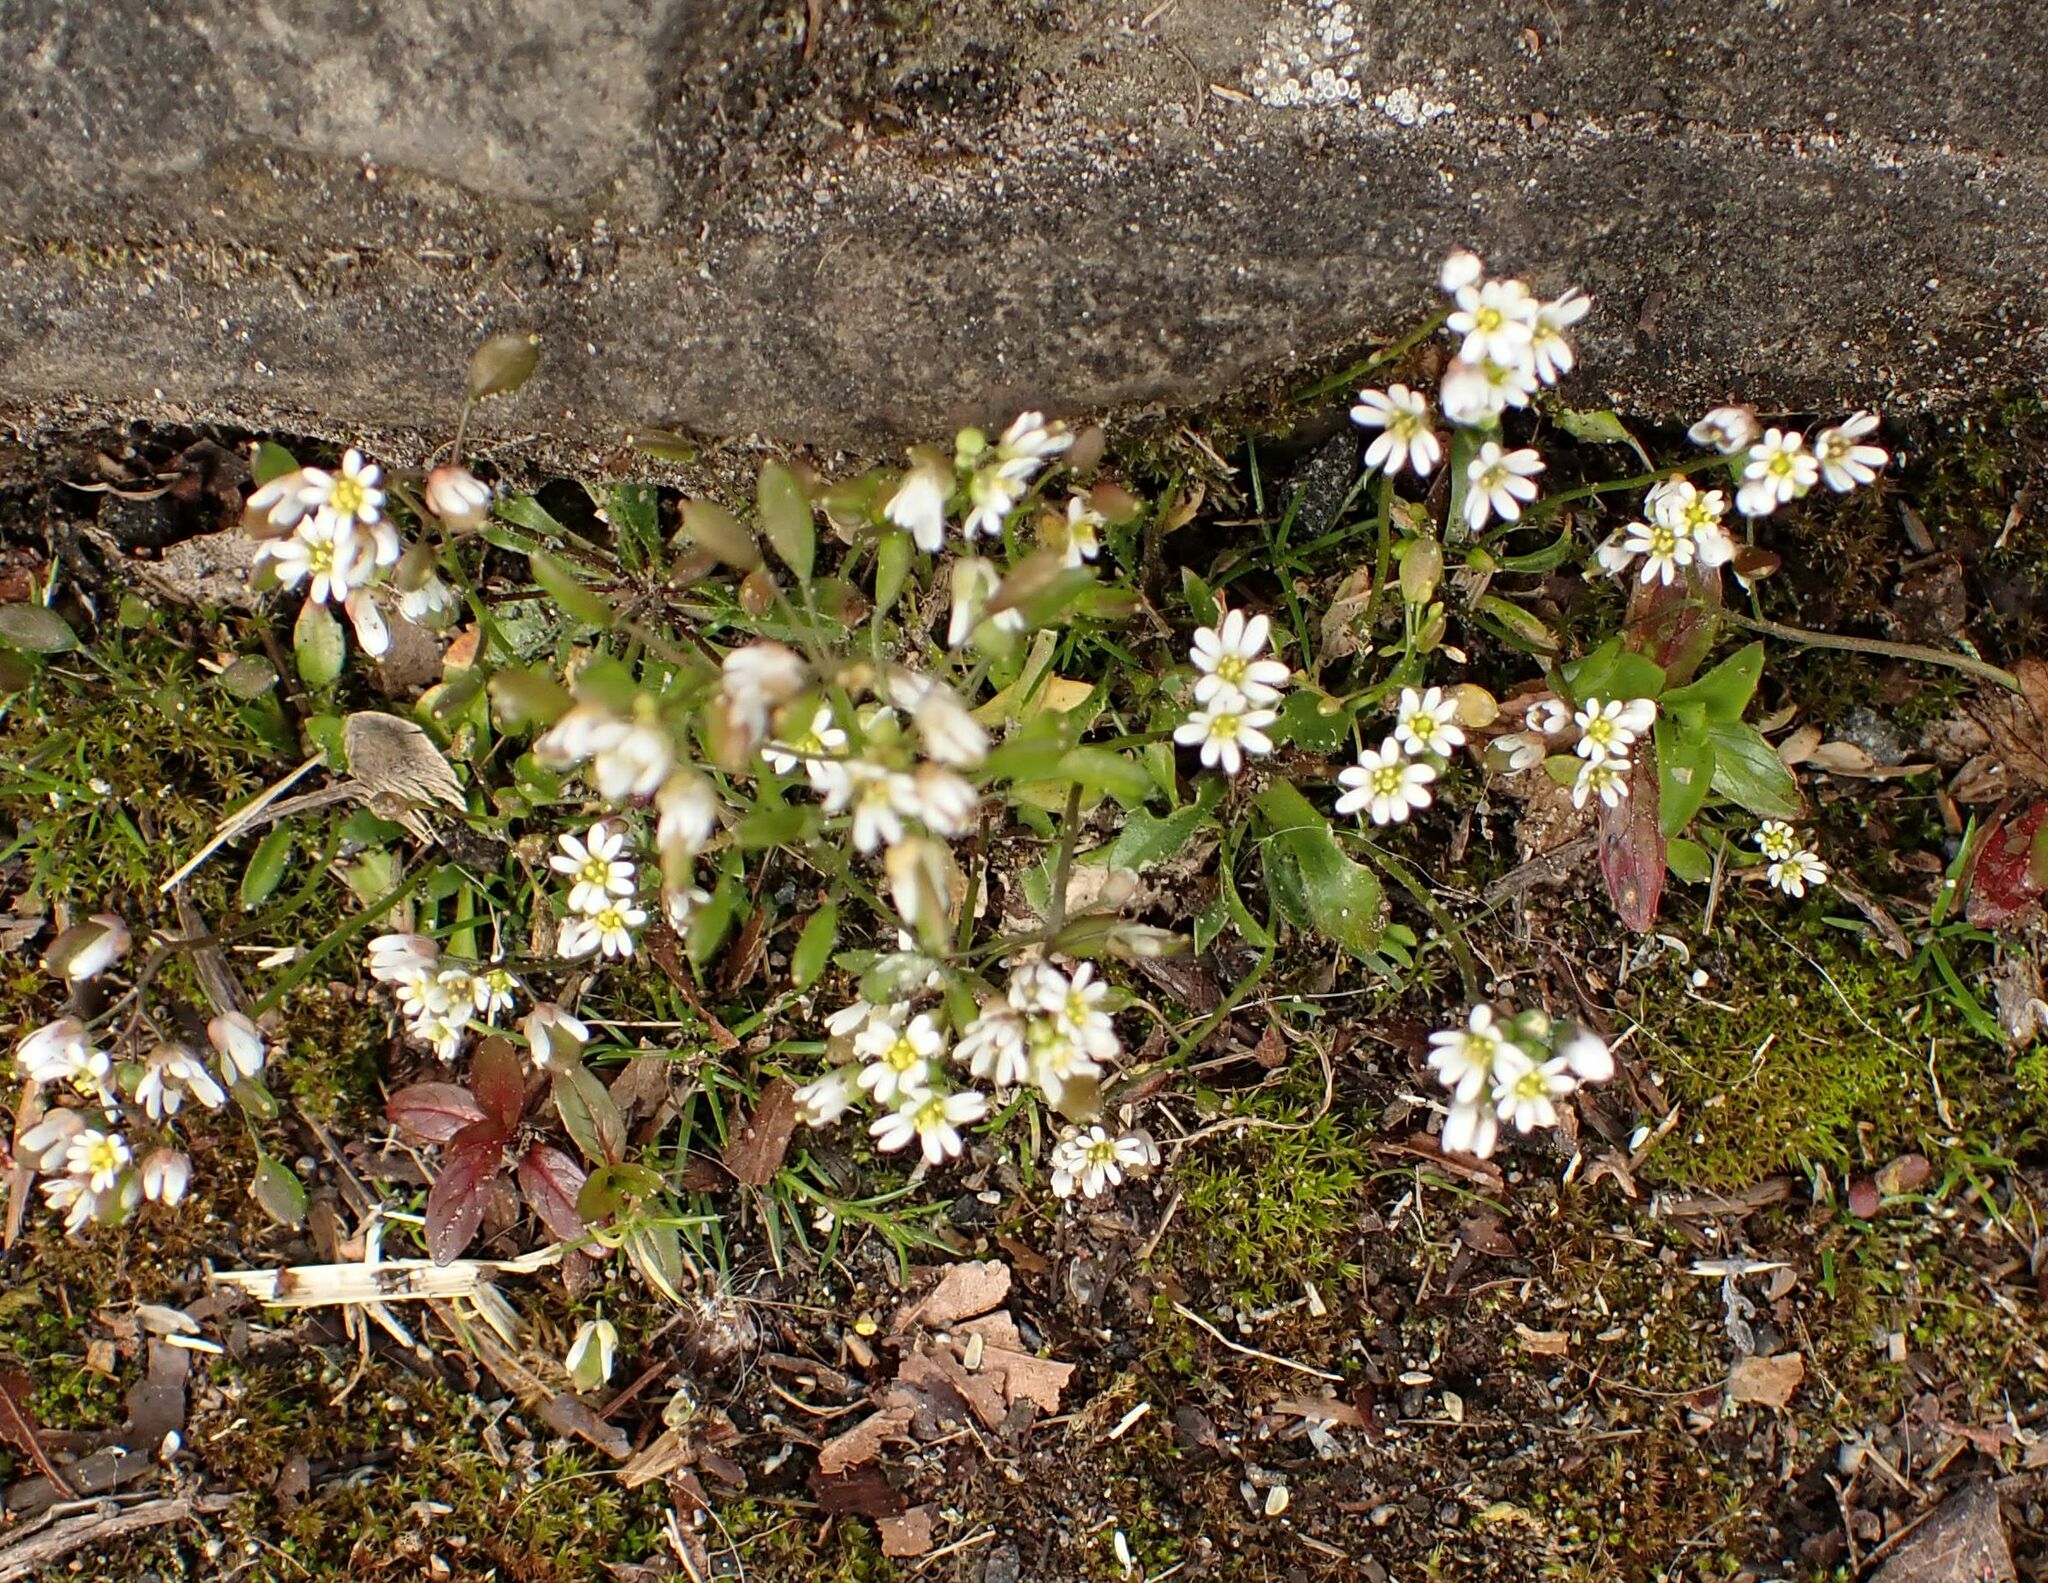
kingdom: Plantae
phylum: Tracheophyta
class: Magnoliopsida
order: Brassicales
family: Brassicaceae
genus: Draba
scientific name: Draba verna
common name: Spring draba
